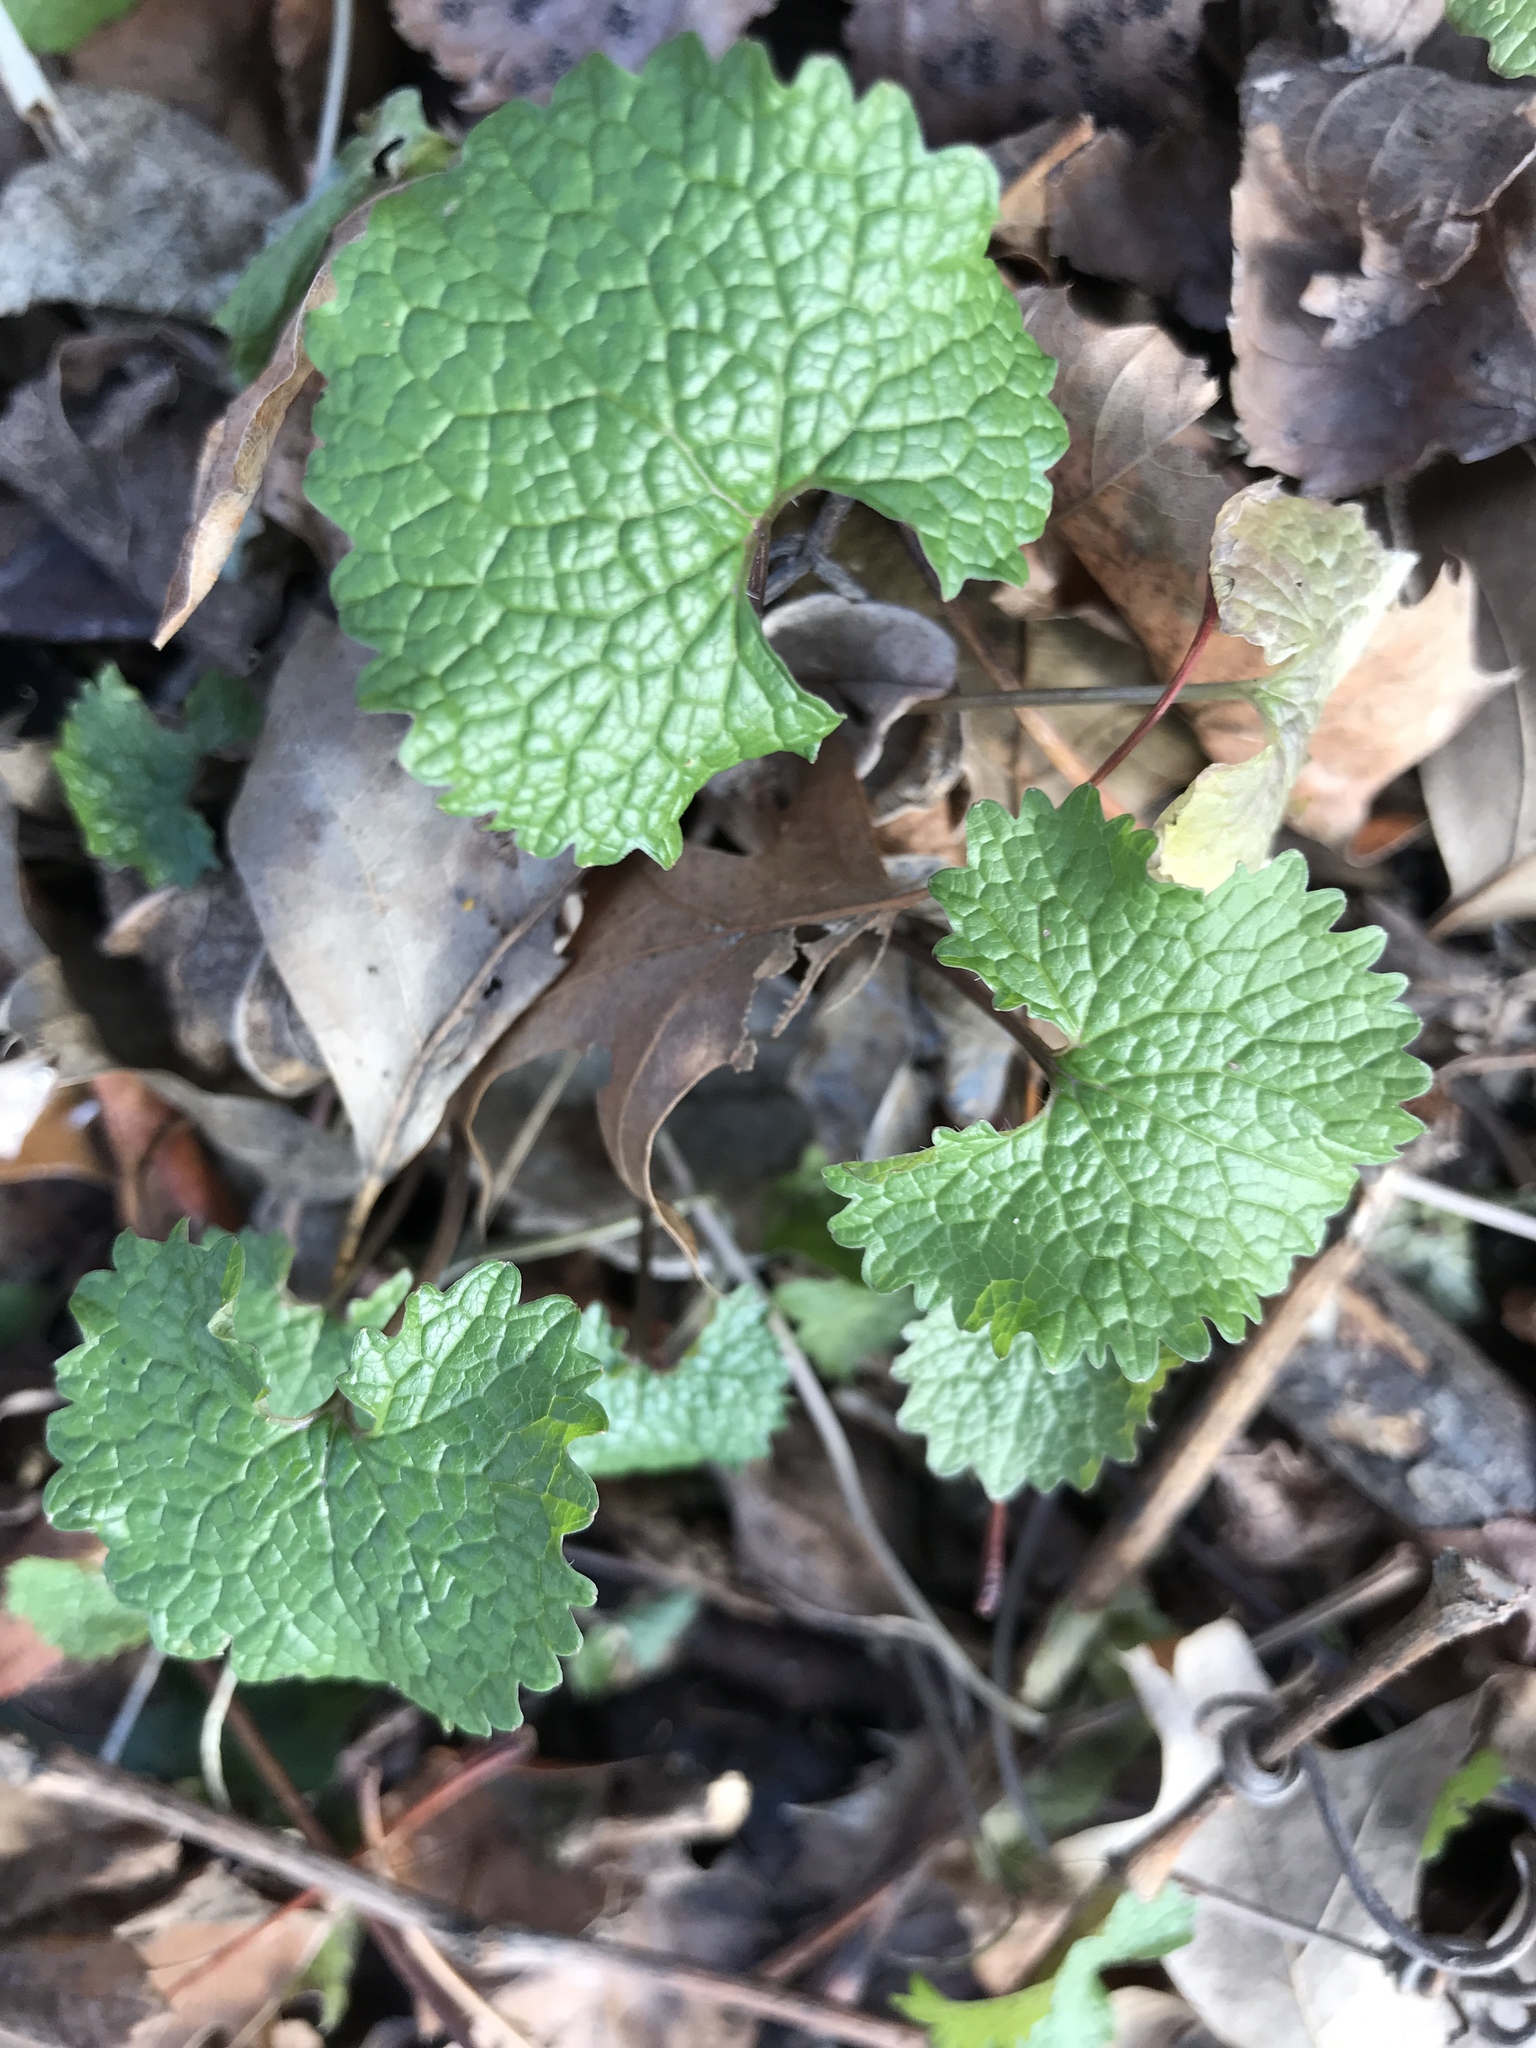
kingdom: Plantae
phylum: Tracheophyta
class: Magnoliopsida
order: Brassicales
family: Brassicaceae
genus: Alliaria
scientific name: Alliaria petiolata
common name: Garlic mustard
